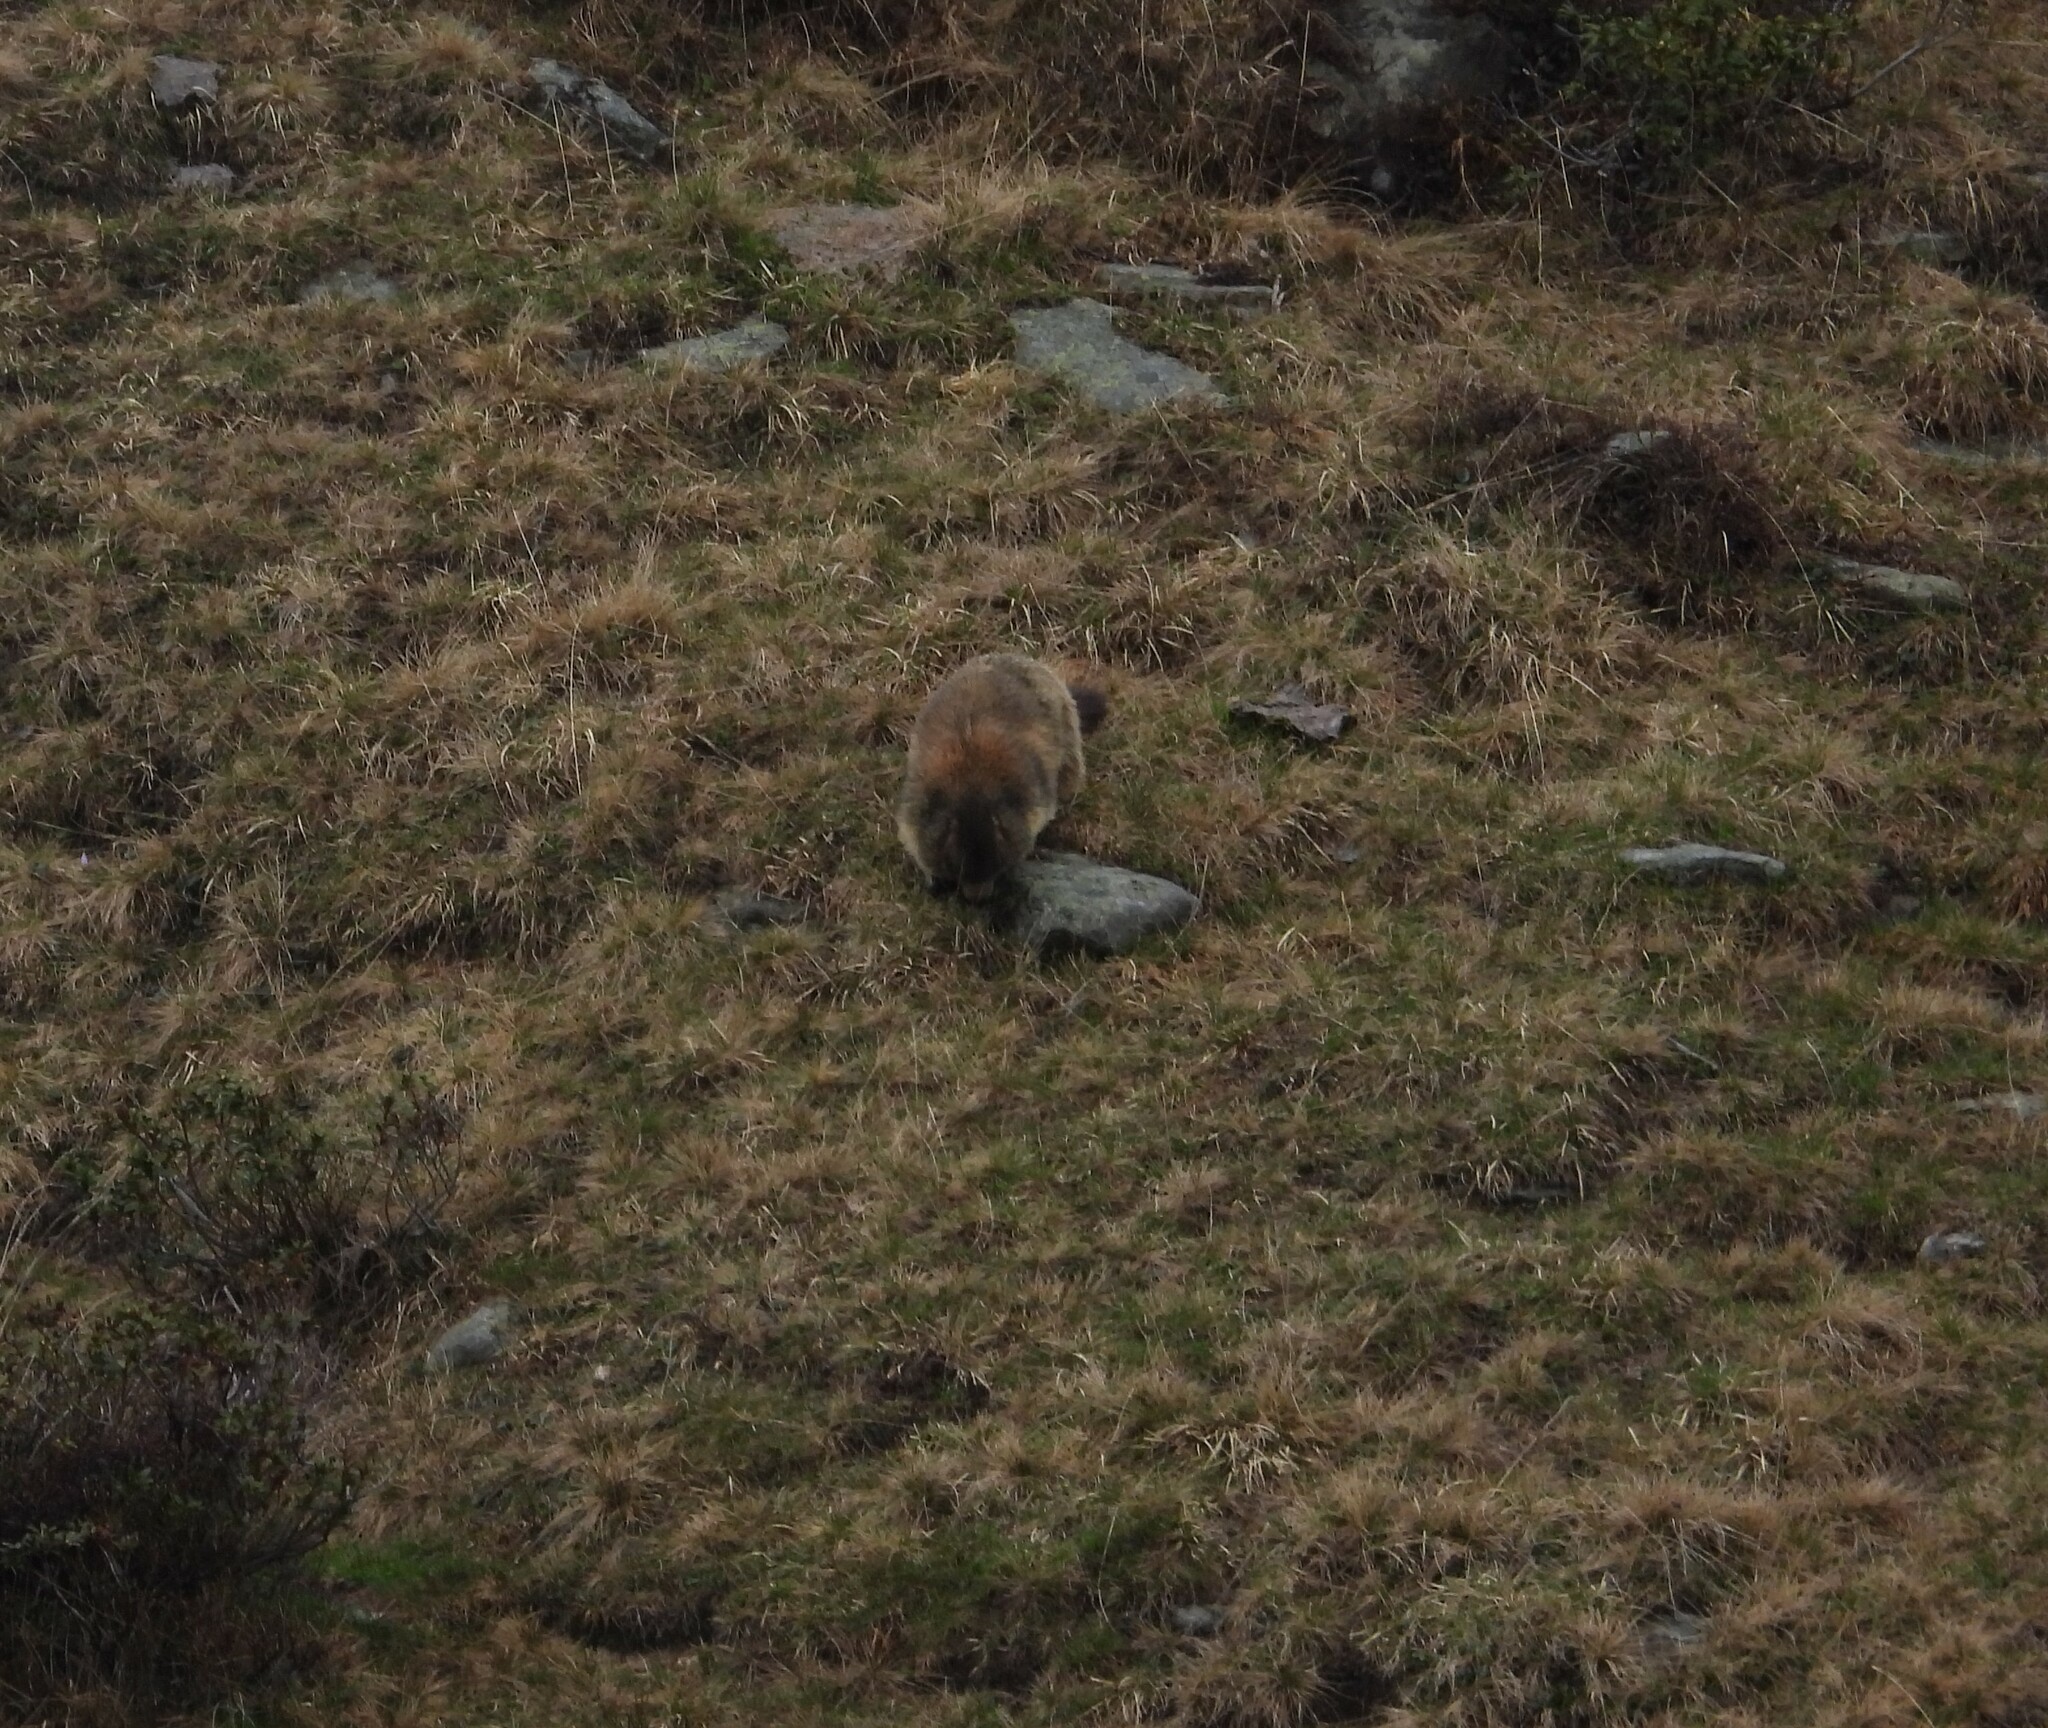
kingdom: Animalia
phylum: Chordata
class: Mammalia
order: Rodentia
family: Sciuridae
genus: Marmota
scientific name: Marmota marmota
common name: Alpine marmot
